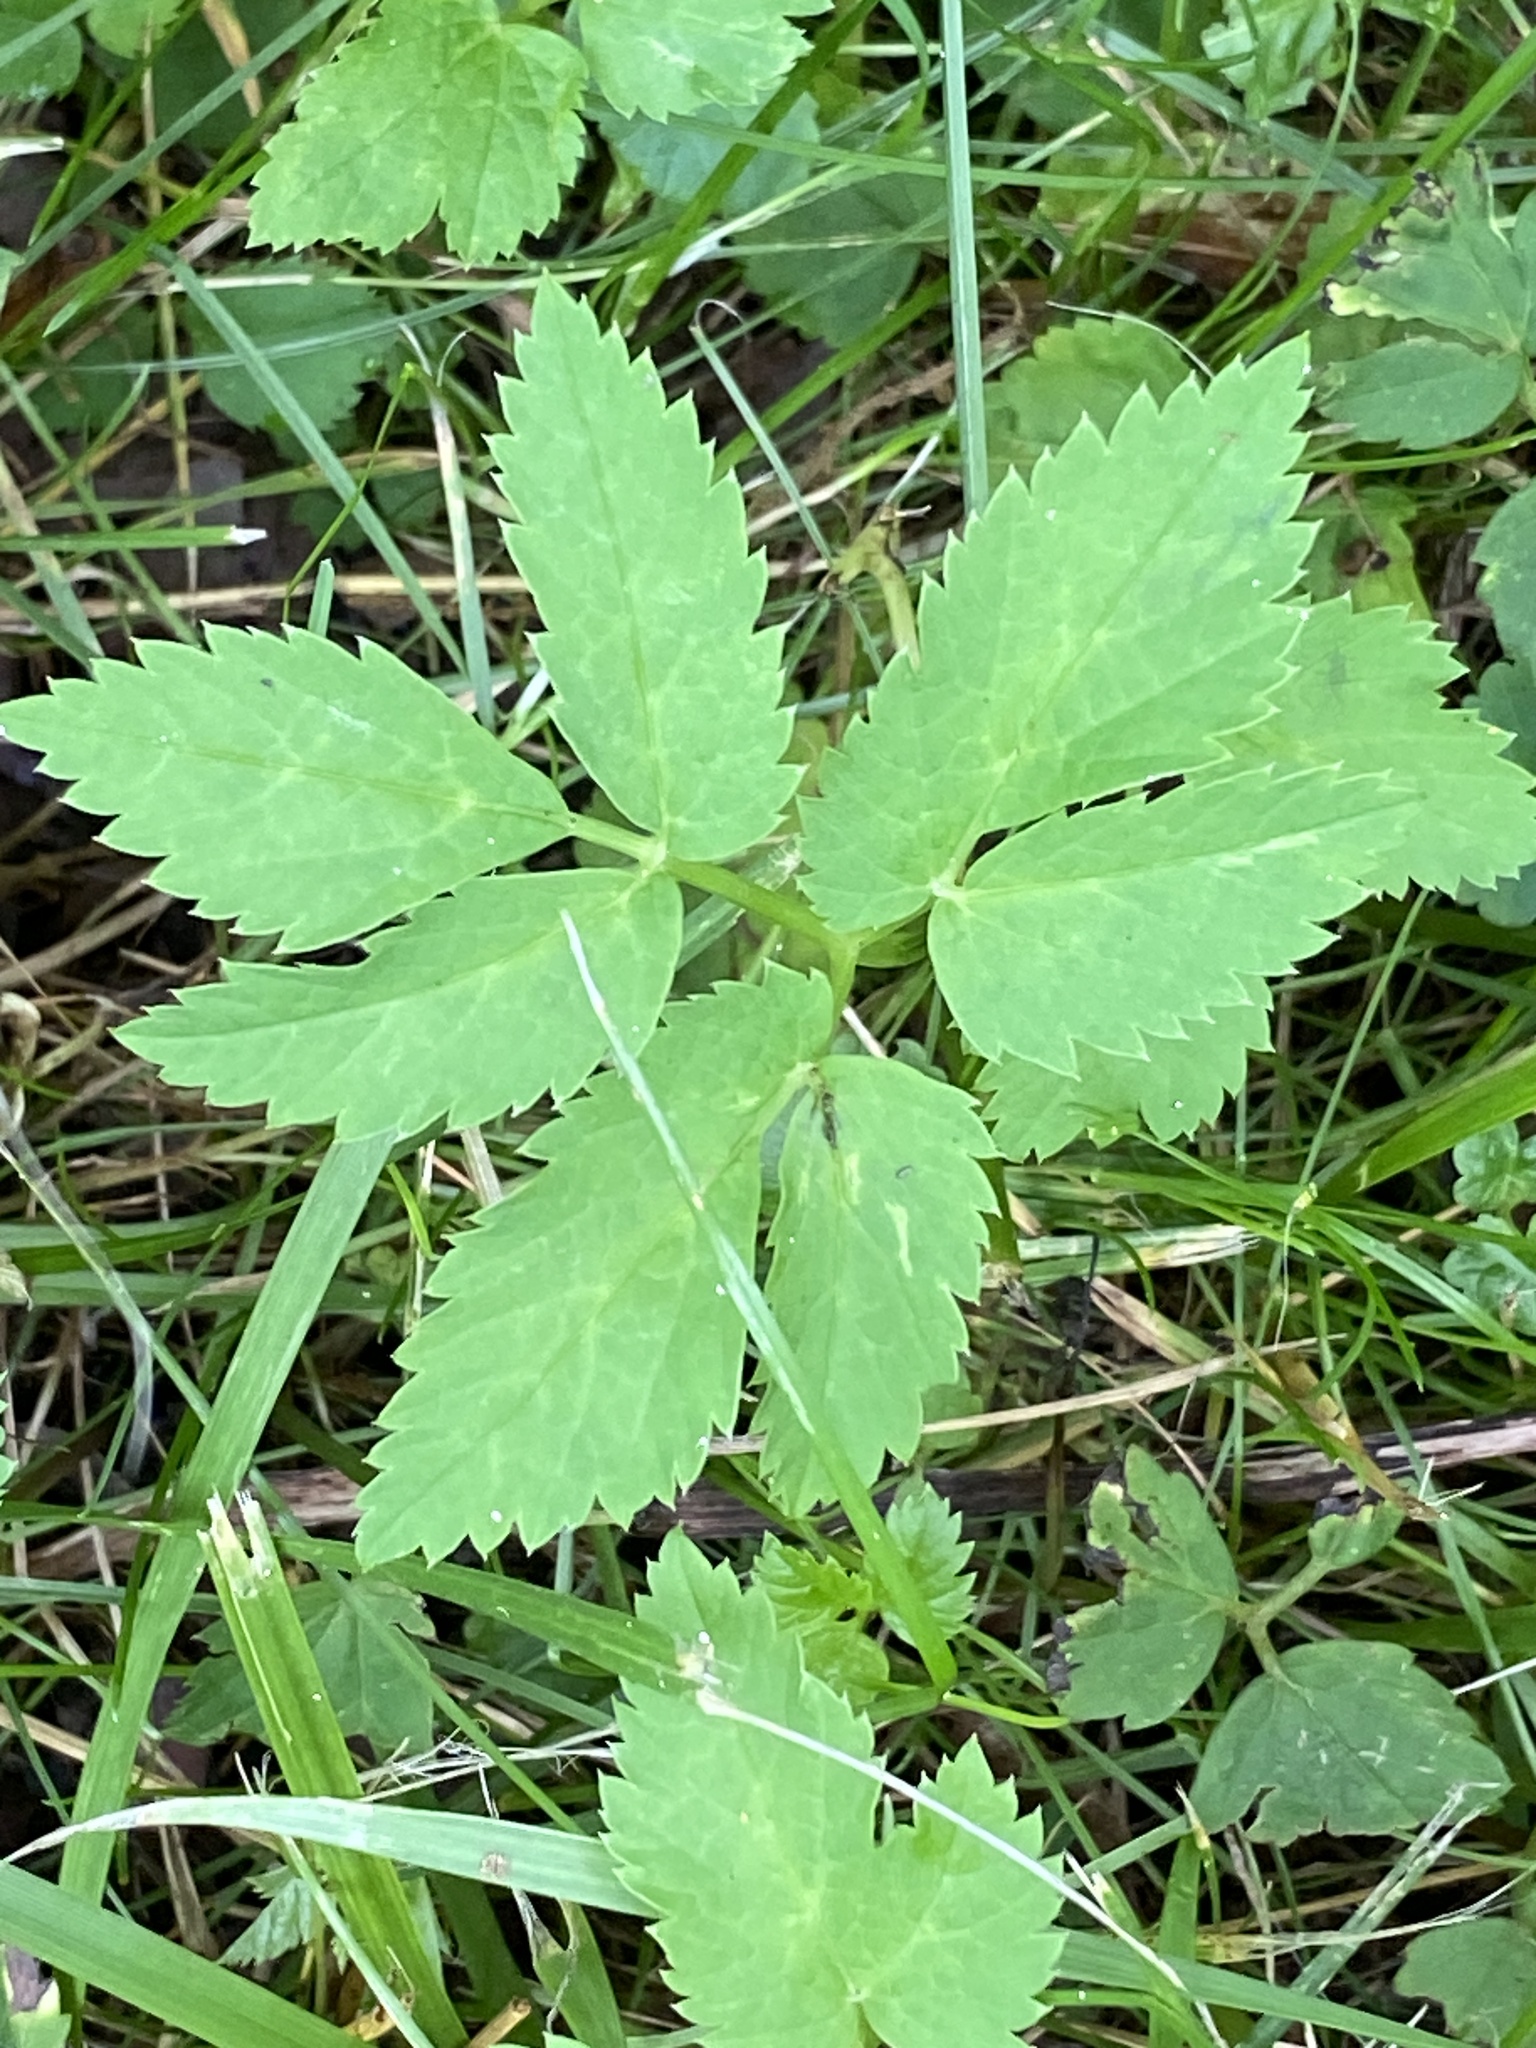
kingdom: Plantae
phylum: Tracheophyta
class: Magnoliopsida
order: Apiales
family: Apiaceae
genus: Aegopodium
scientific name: Aegopodium podagraria
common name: Ground-elder
